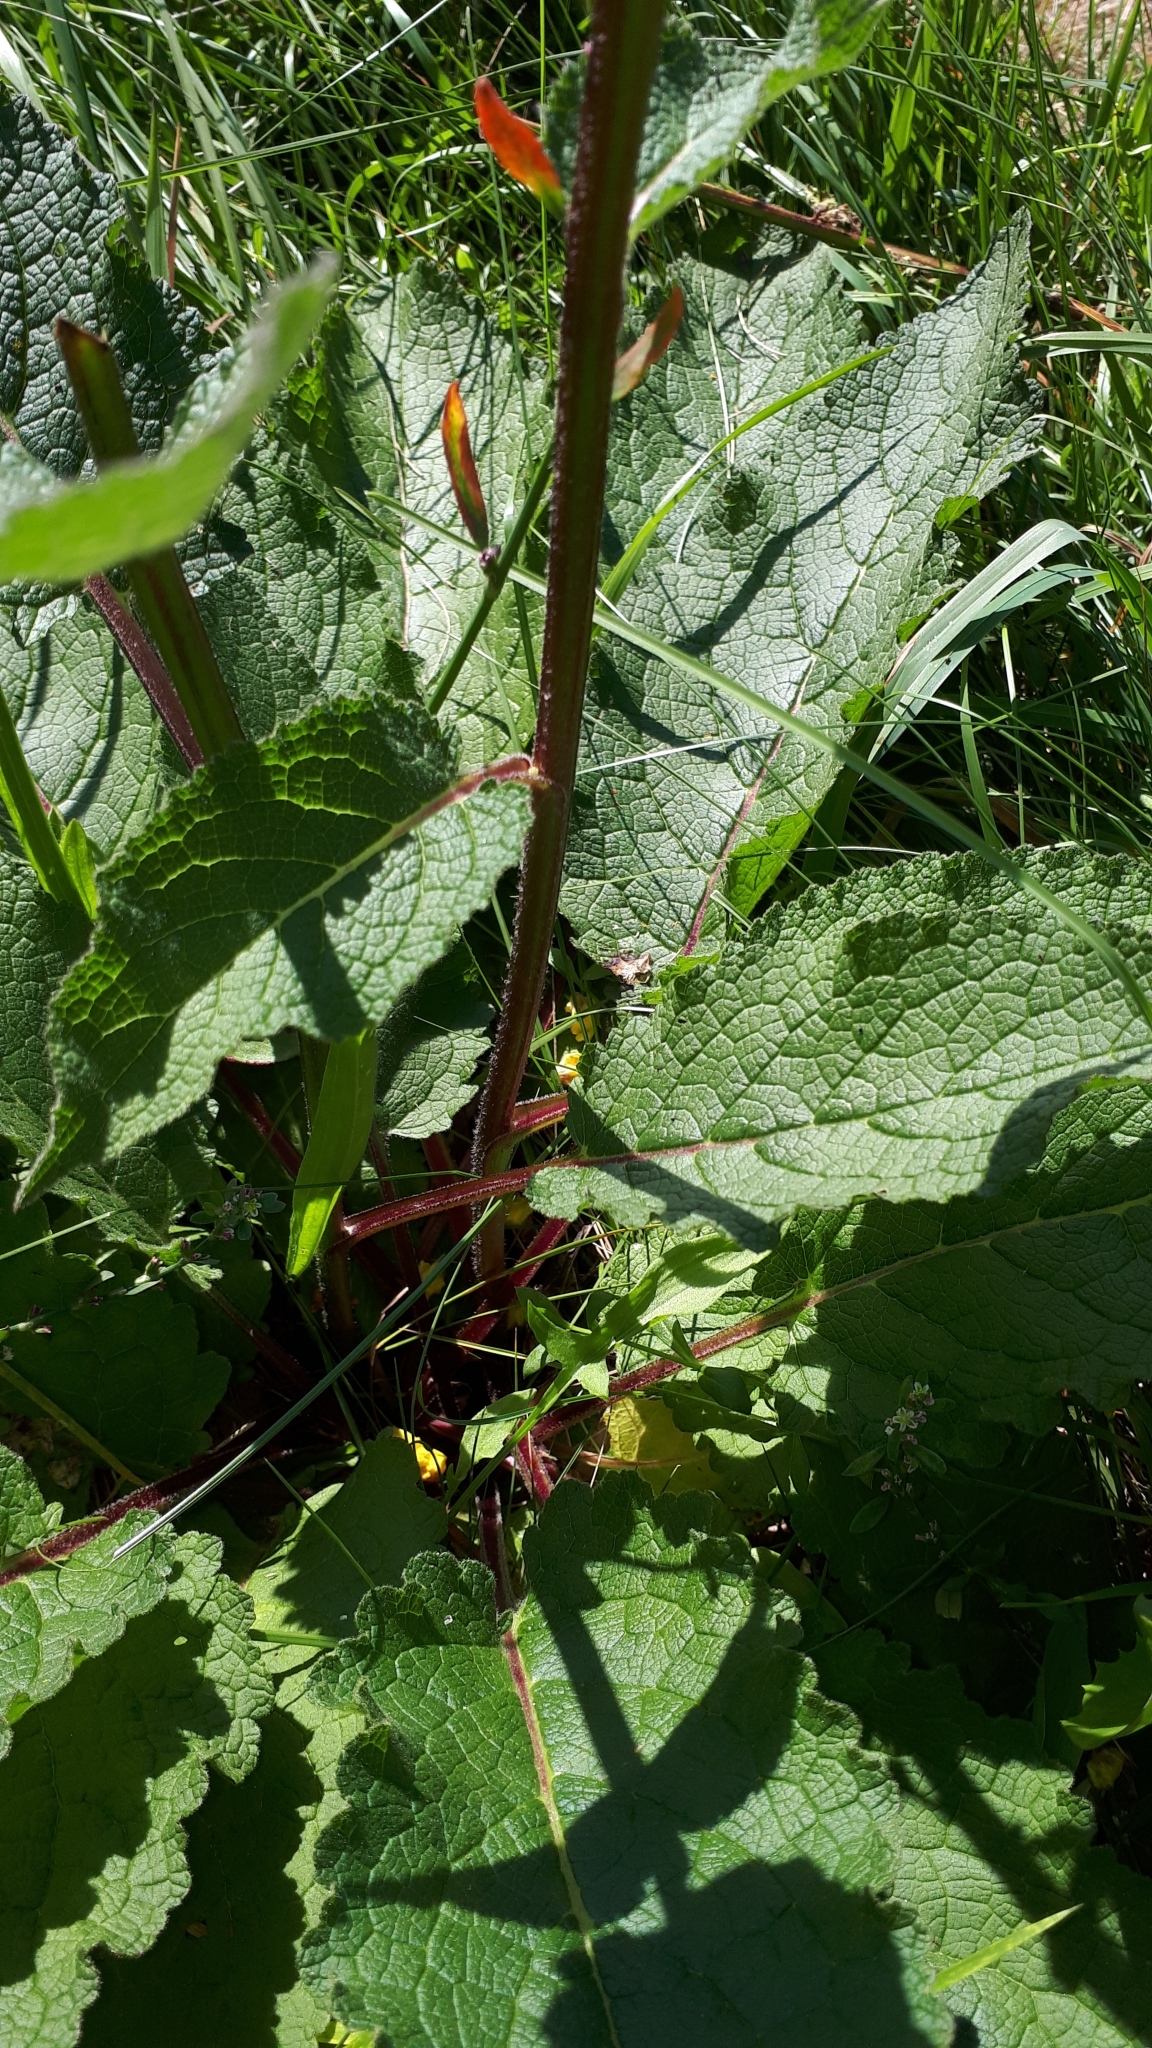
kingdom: Plantae
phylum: Tracheophyta
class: Magnoliopsida
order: Lamiales
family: Scrophulariaceae
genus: Verbascum
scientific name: Verbascum nigrum
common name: Dark mullein
